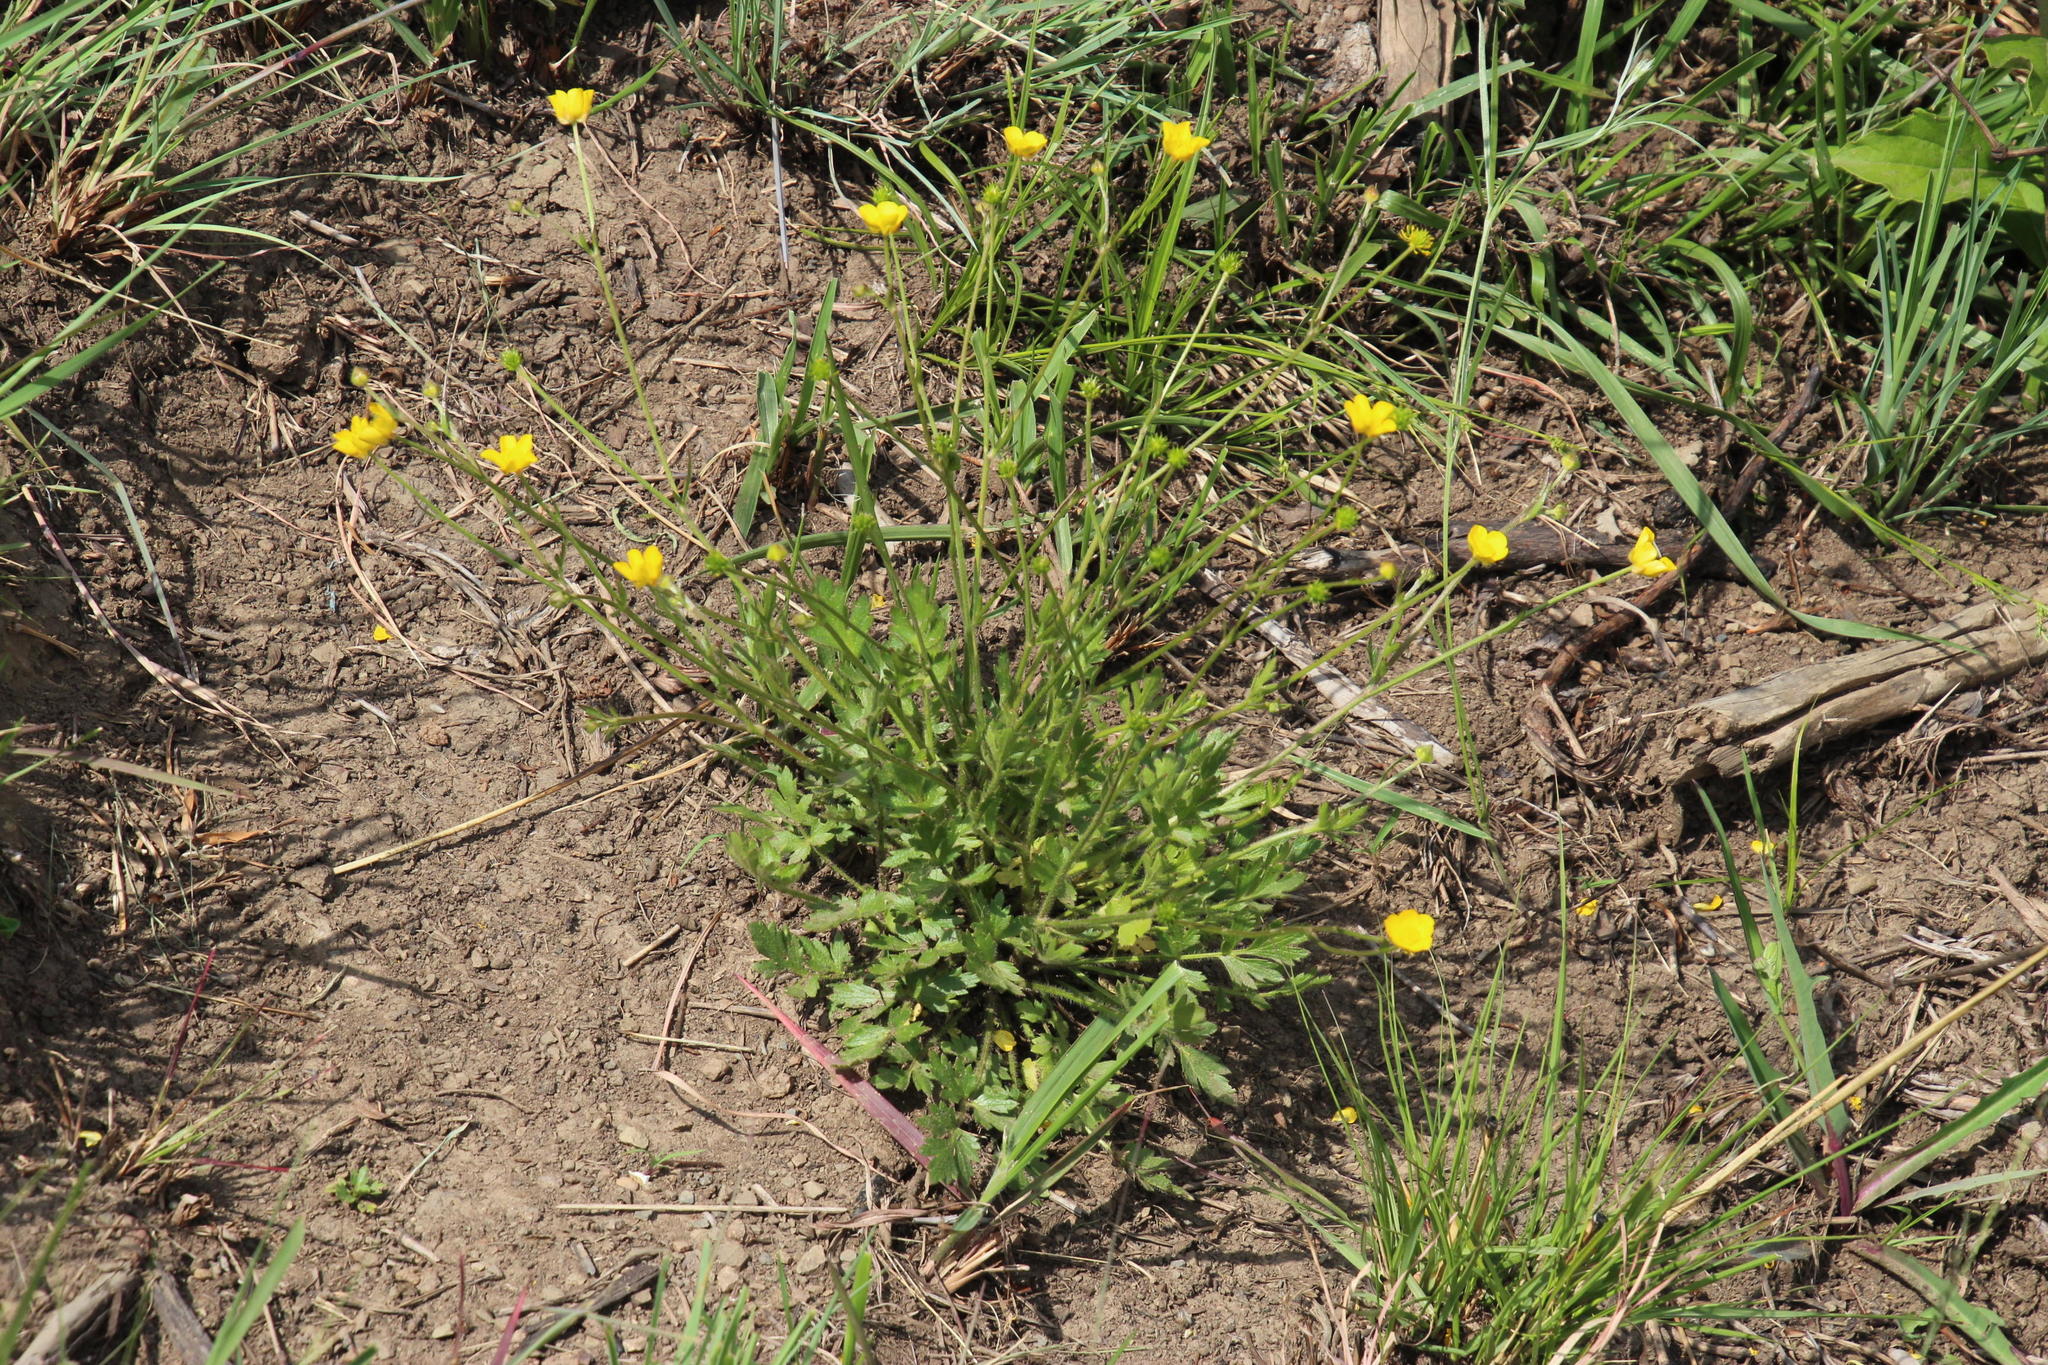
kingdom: Plantae
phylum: Tracheophyta
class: Magnoliopsida
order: Ranunculales
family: Ranunculaceae
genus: Ranunculus
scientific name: Ranunculus multifidus
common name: Wild buttercup
